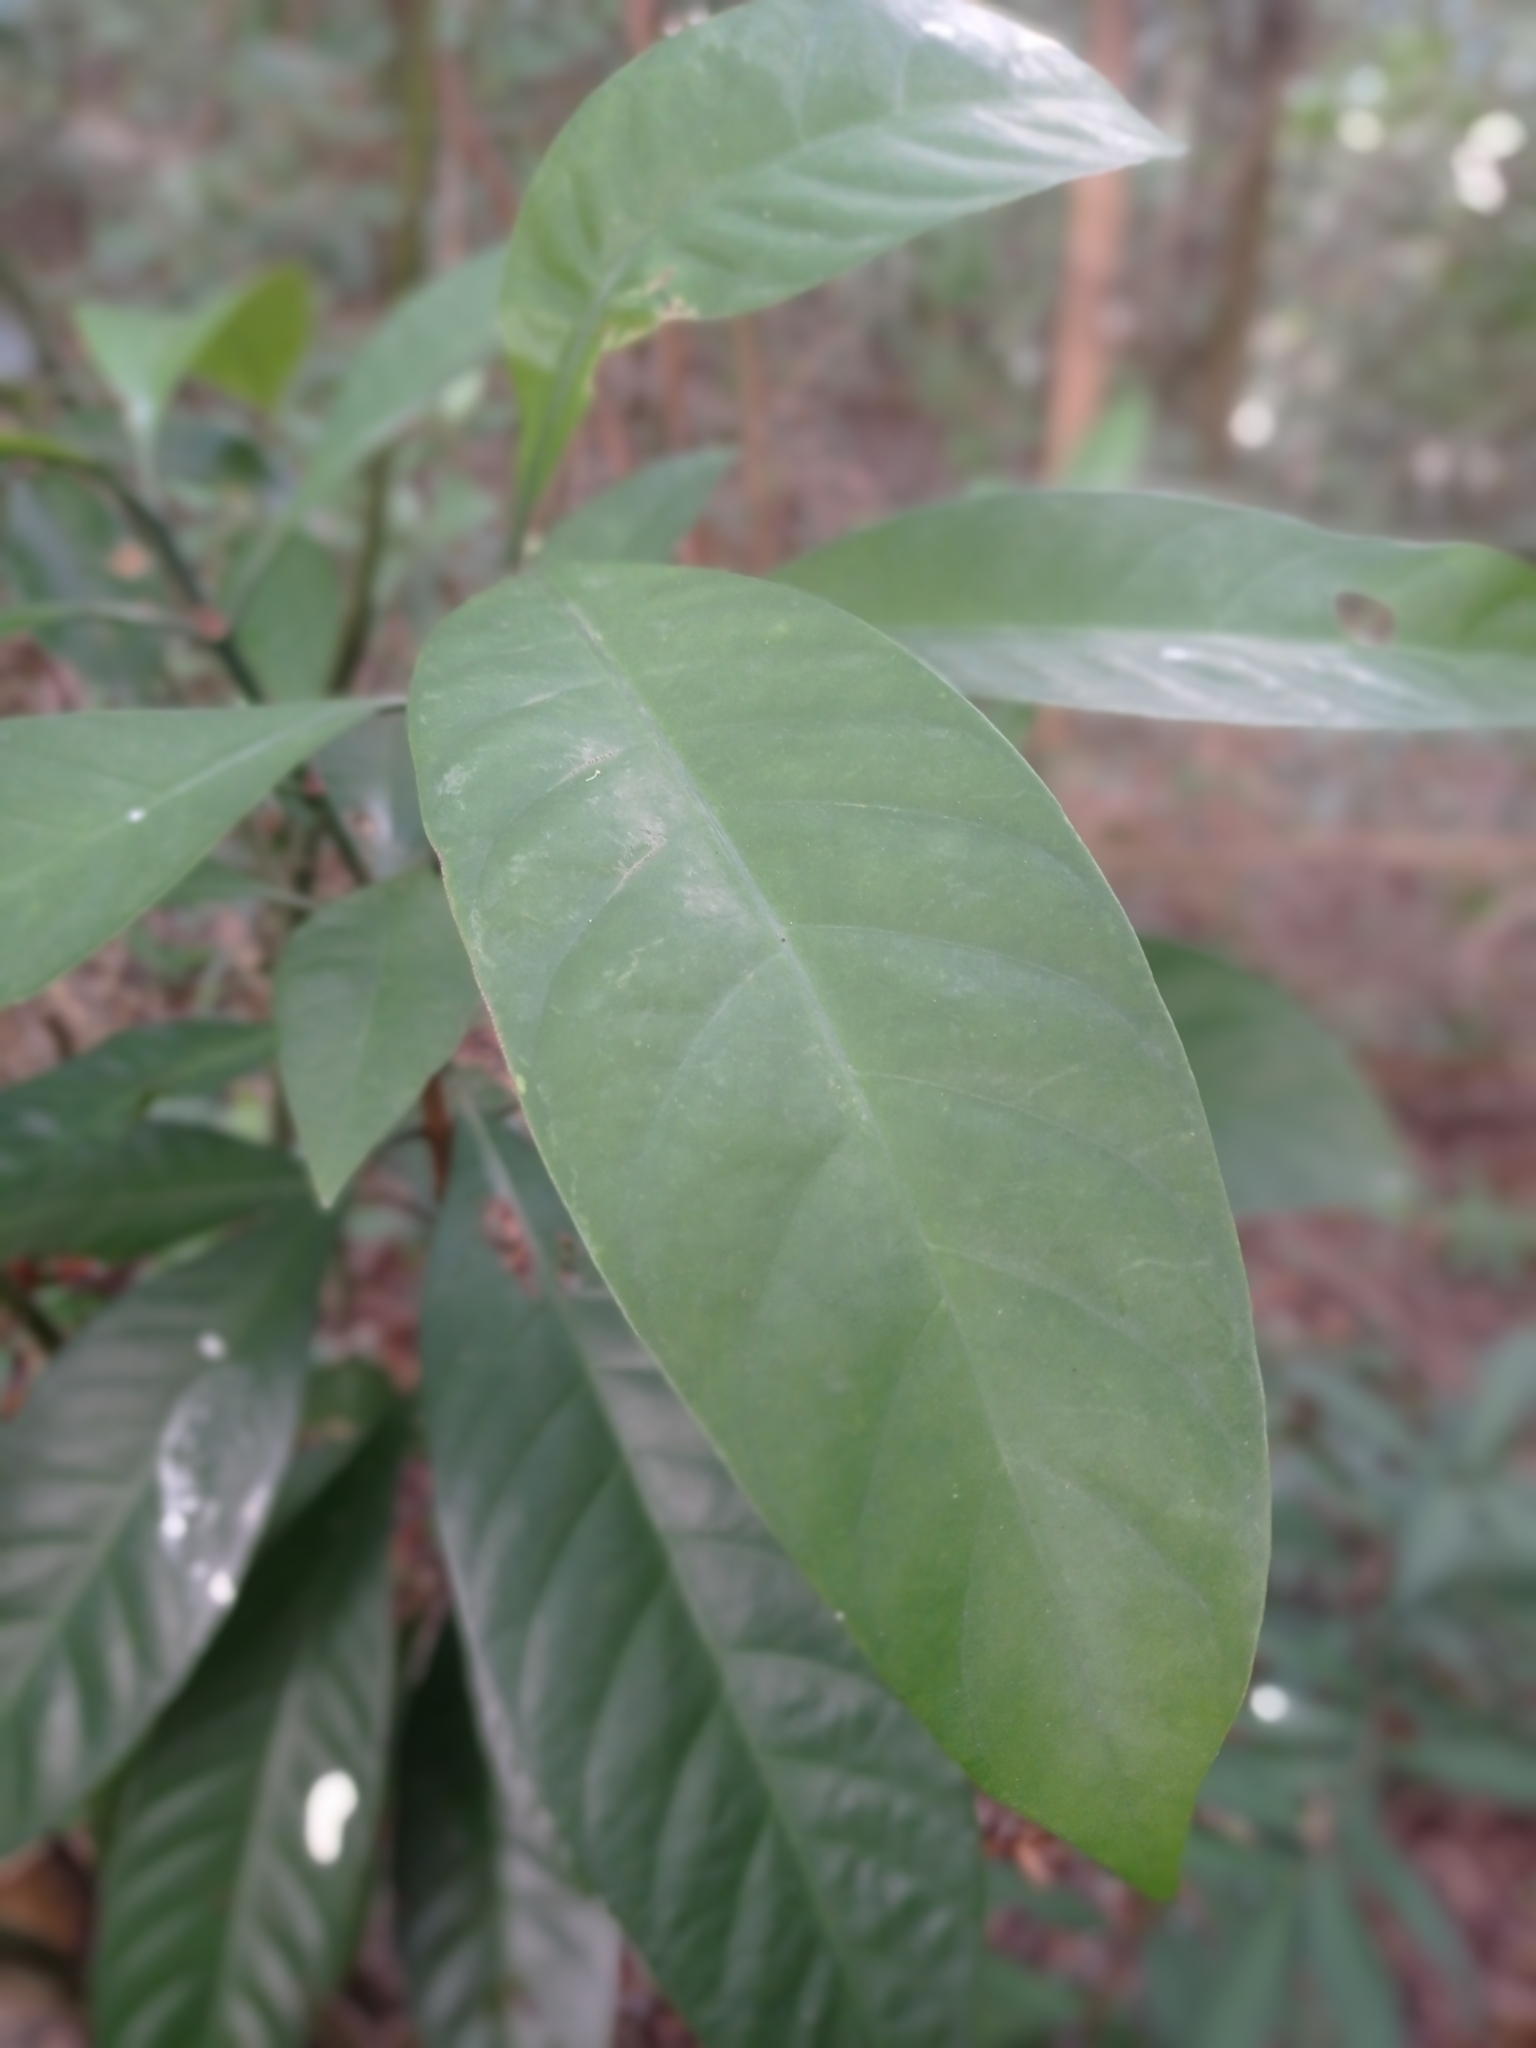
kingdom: Plantae
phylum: Tracheophyta
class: Magnoliopsida
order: Gentianales
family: Rubiaceae
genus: Psychotria
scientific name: Psychotria asiatica
